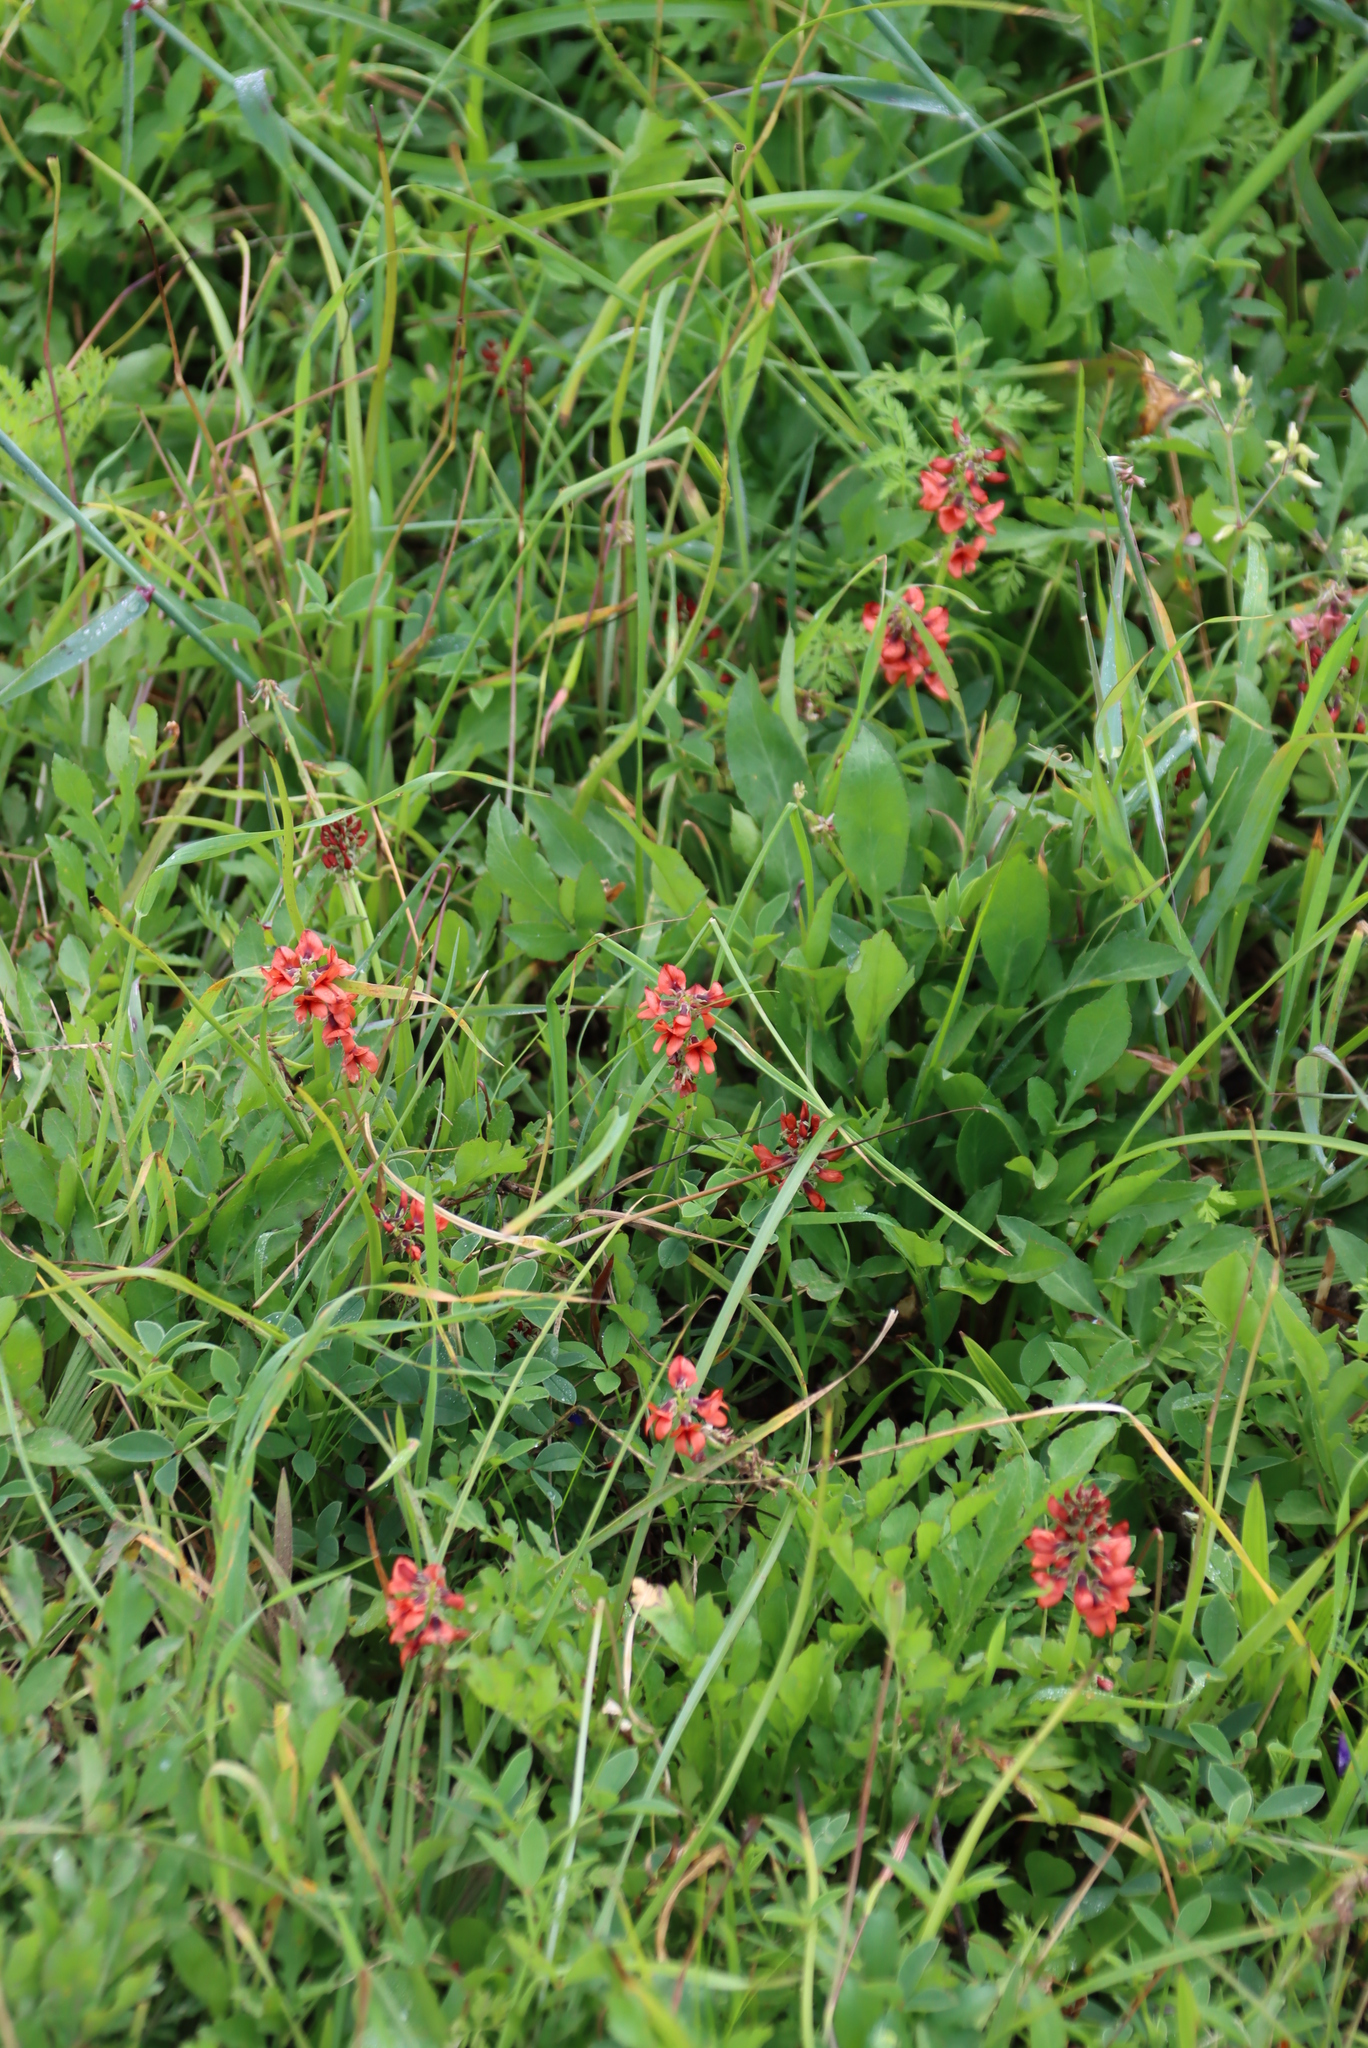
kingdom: Plantae
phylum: Tracheophyta
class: Magnoliopsida
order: Fabales
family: Fabaceae
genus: Indigofera
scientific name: Indigofera
